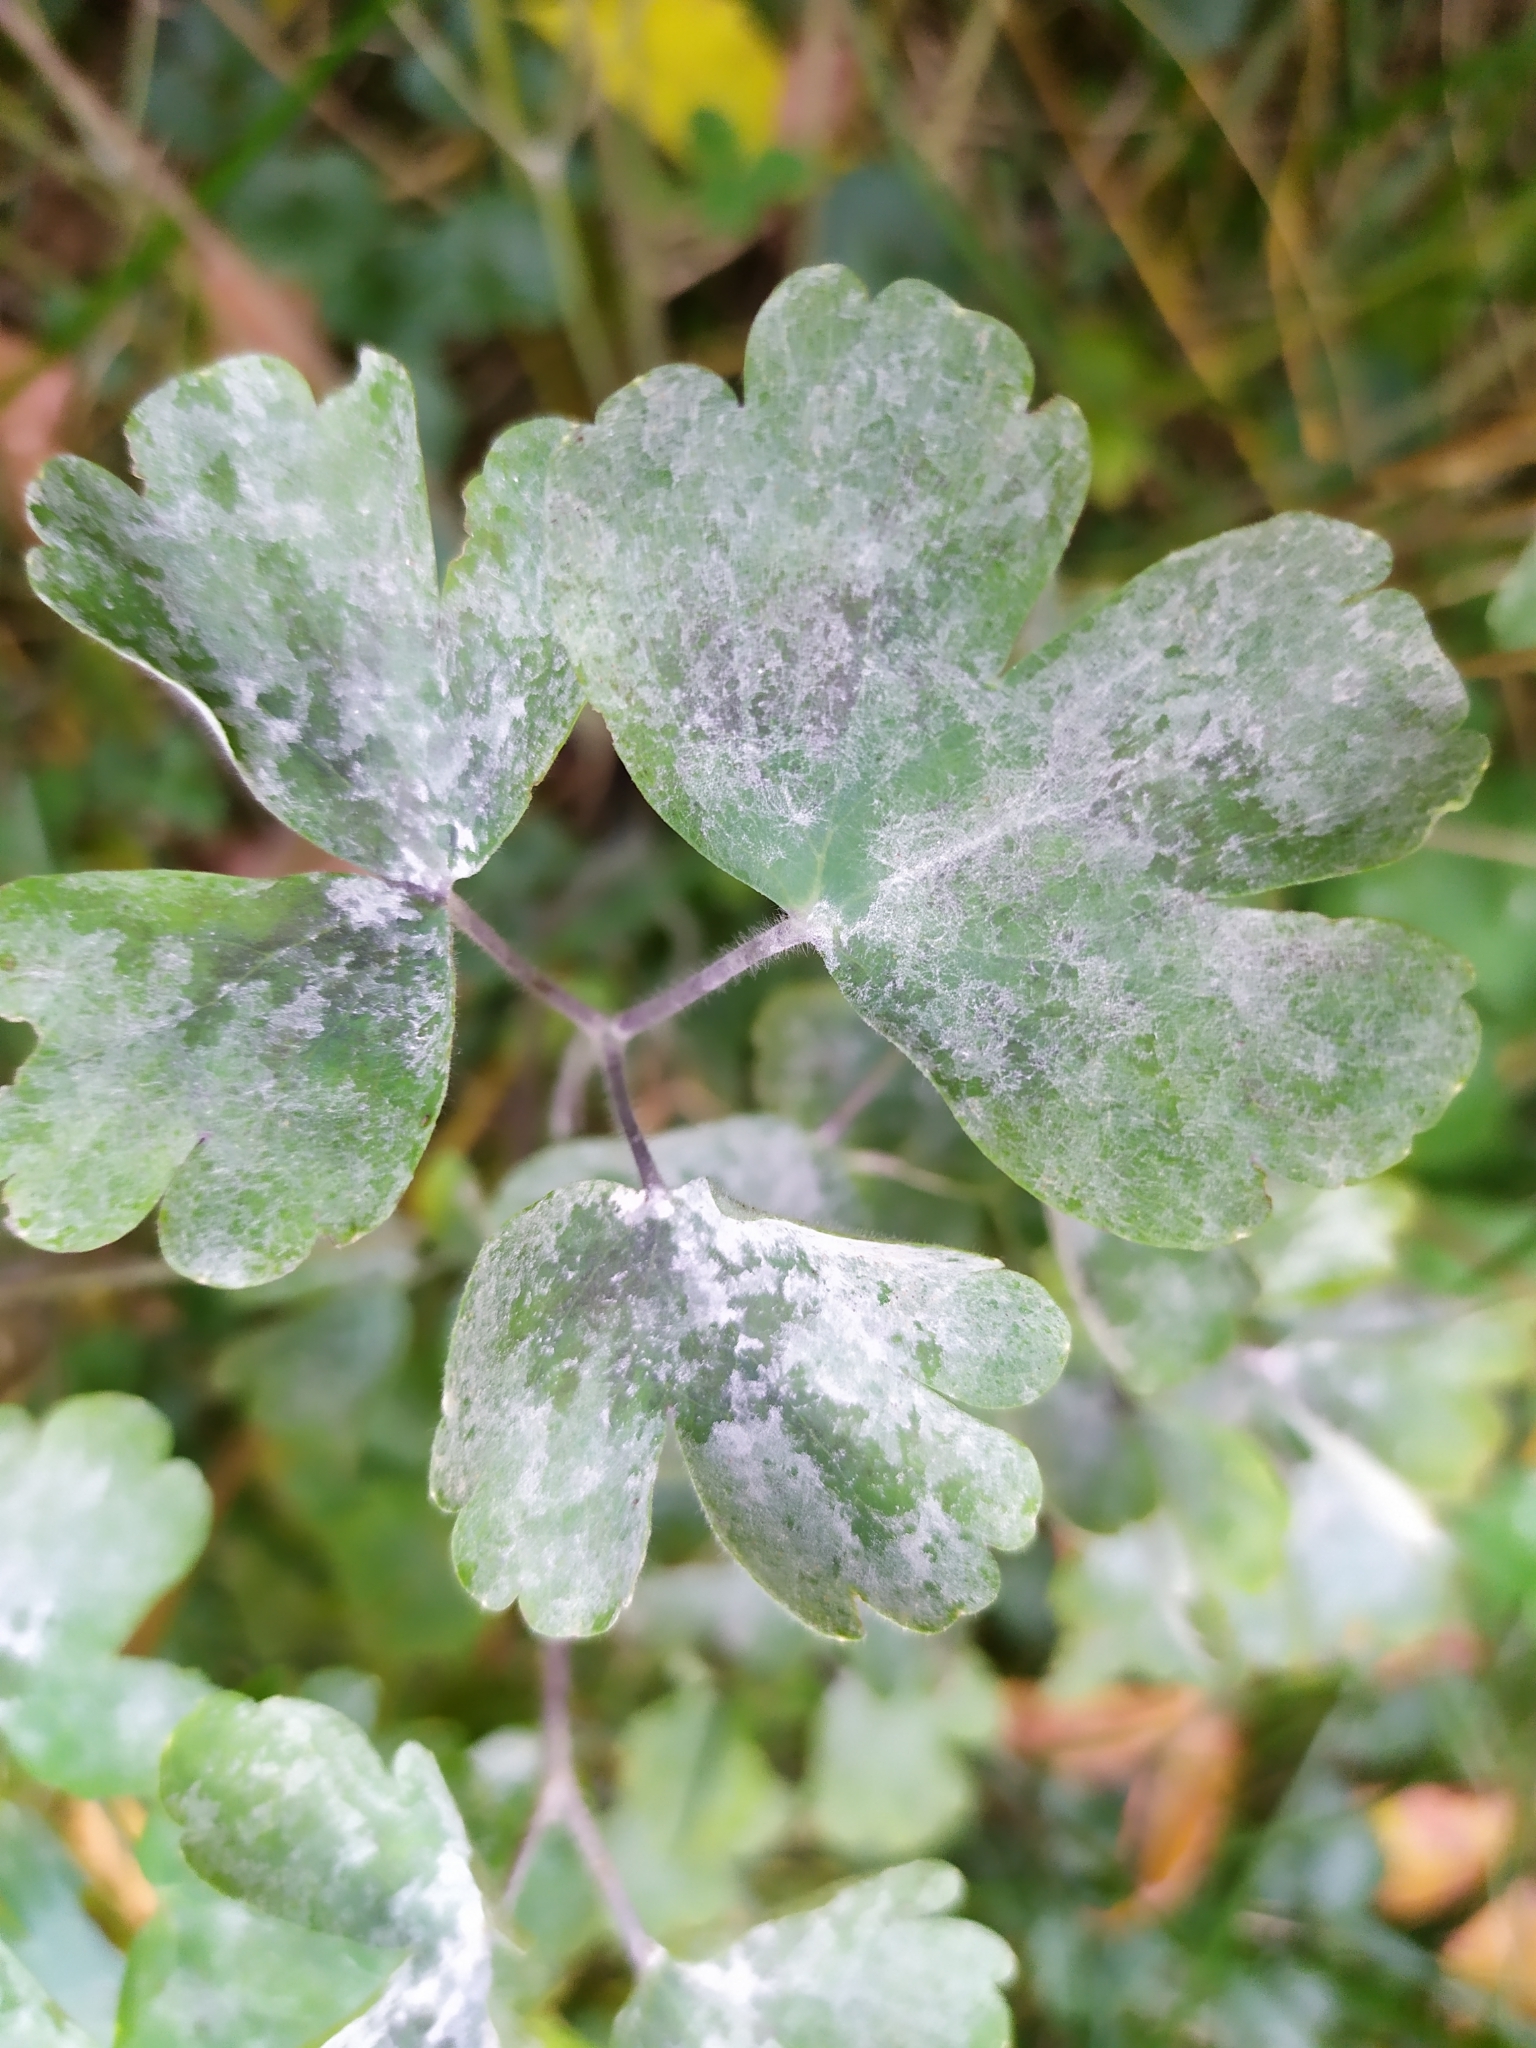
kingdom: Fungi
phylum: Ascomycota
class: Leotiomycetes
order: Helotiales
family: Erysiphaceae
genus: Erysiphe
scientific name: Erysiphe aquilegiae
